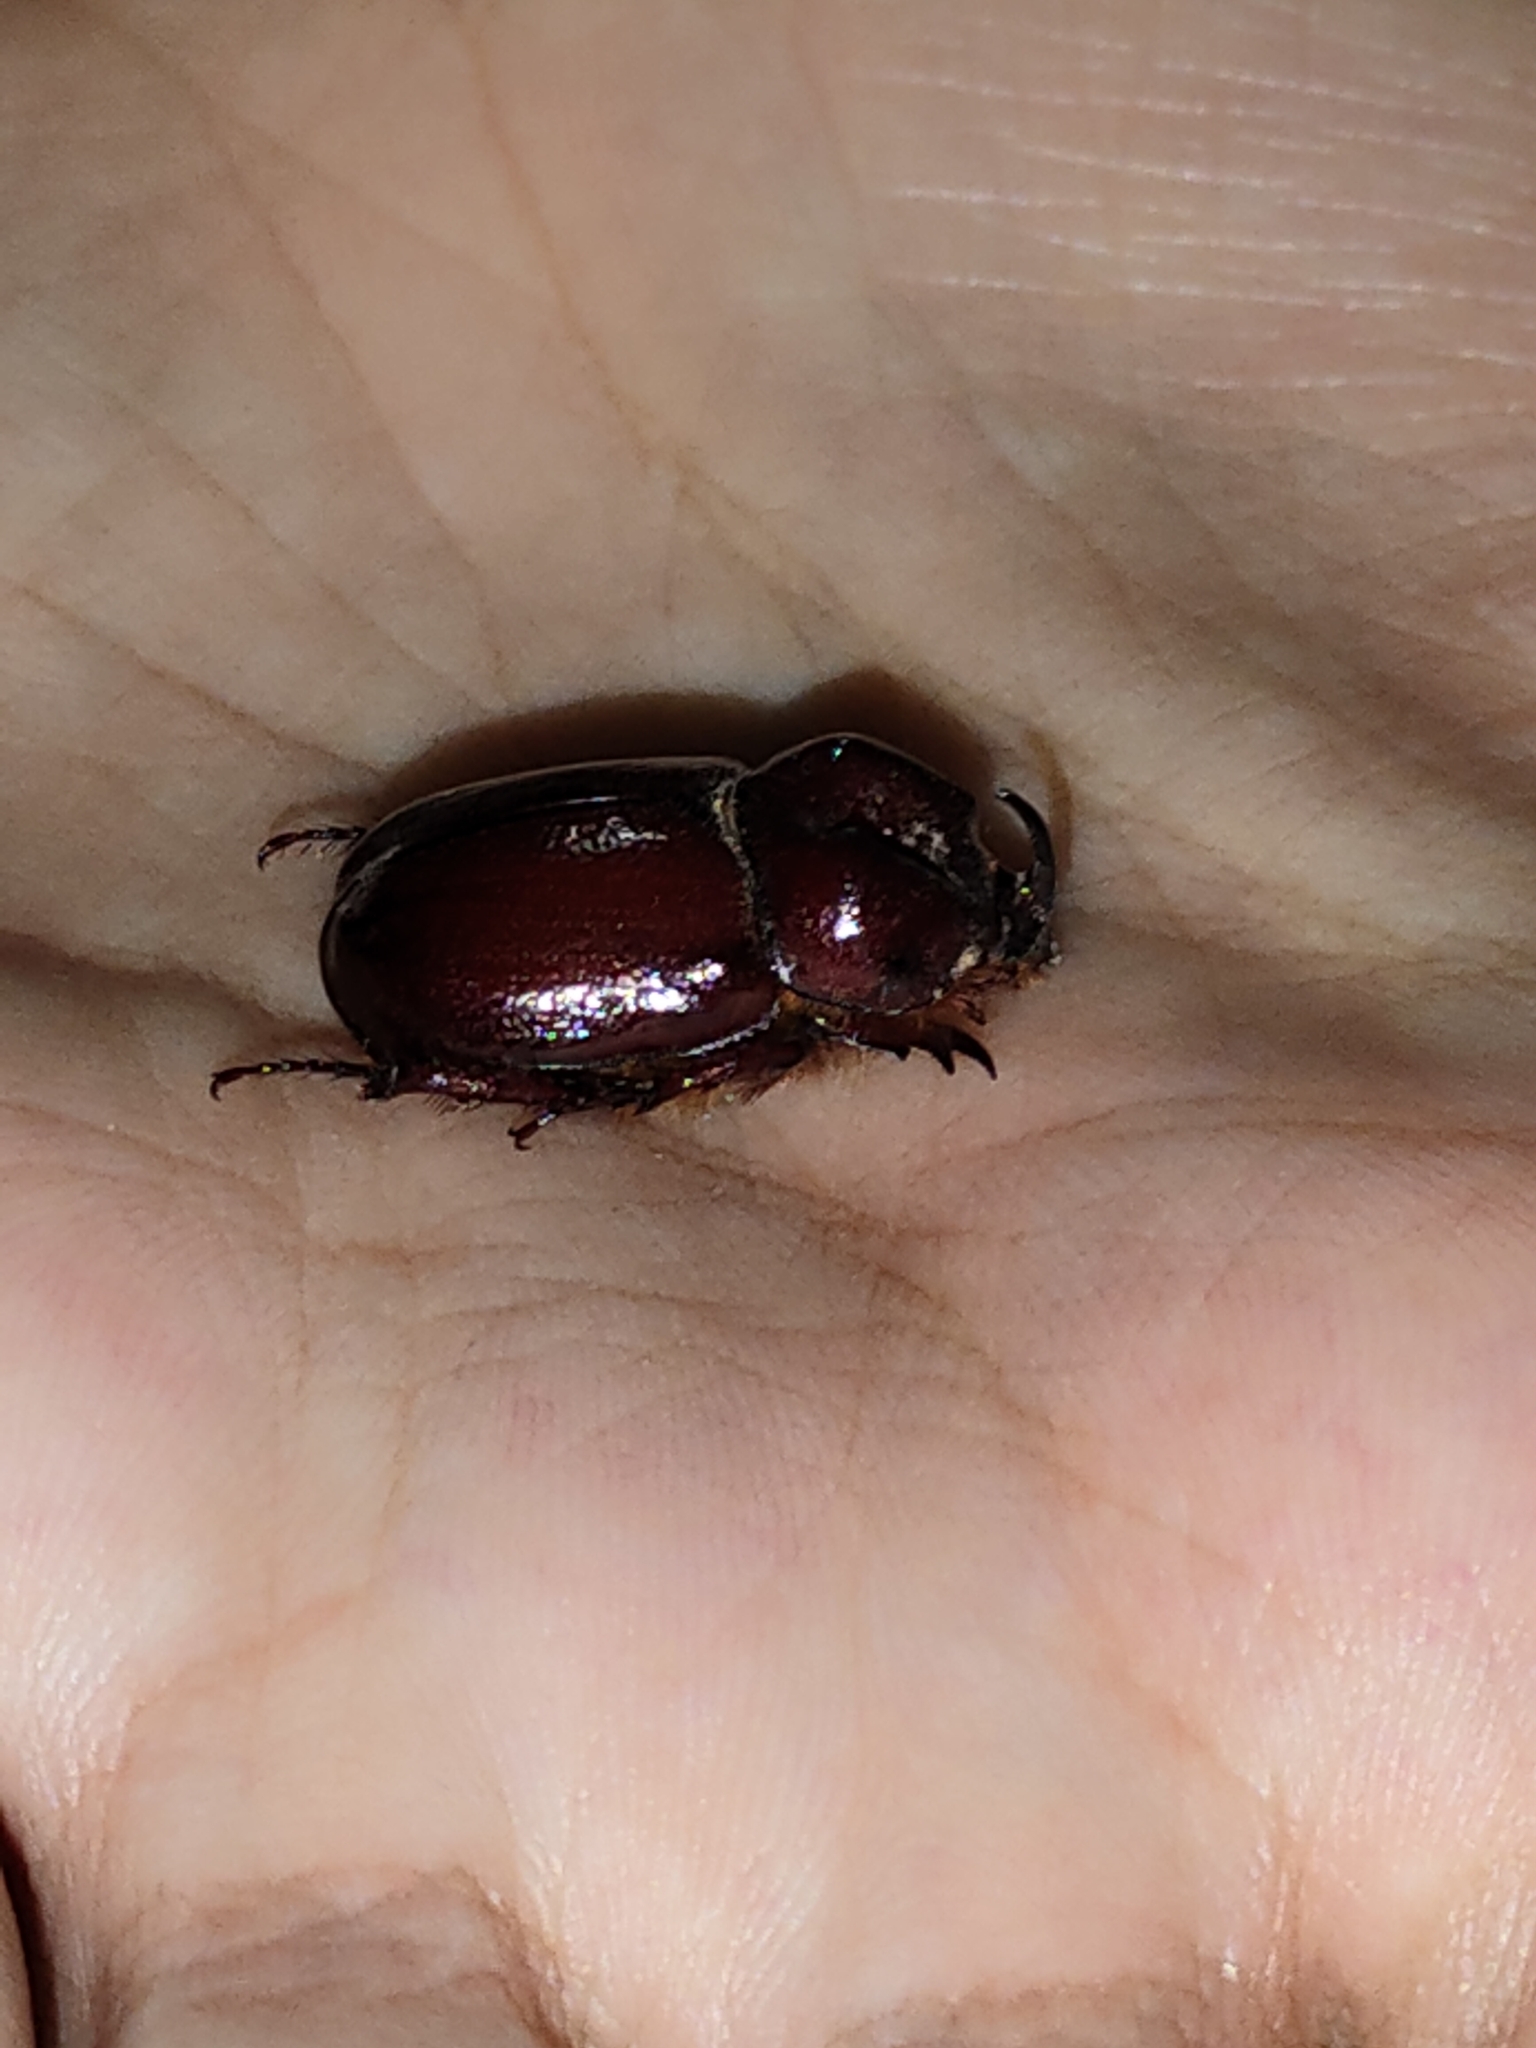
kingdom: Animalia
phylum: Arthropoda
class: Insecta
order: Coleoptera
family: Scarabaeidae
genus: Phyllognathus
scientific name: Phyllognathus excavatus
